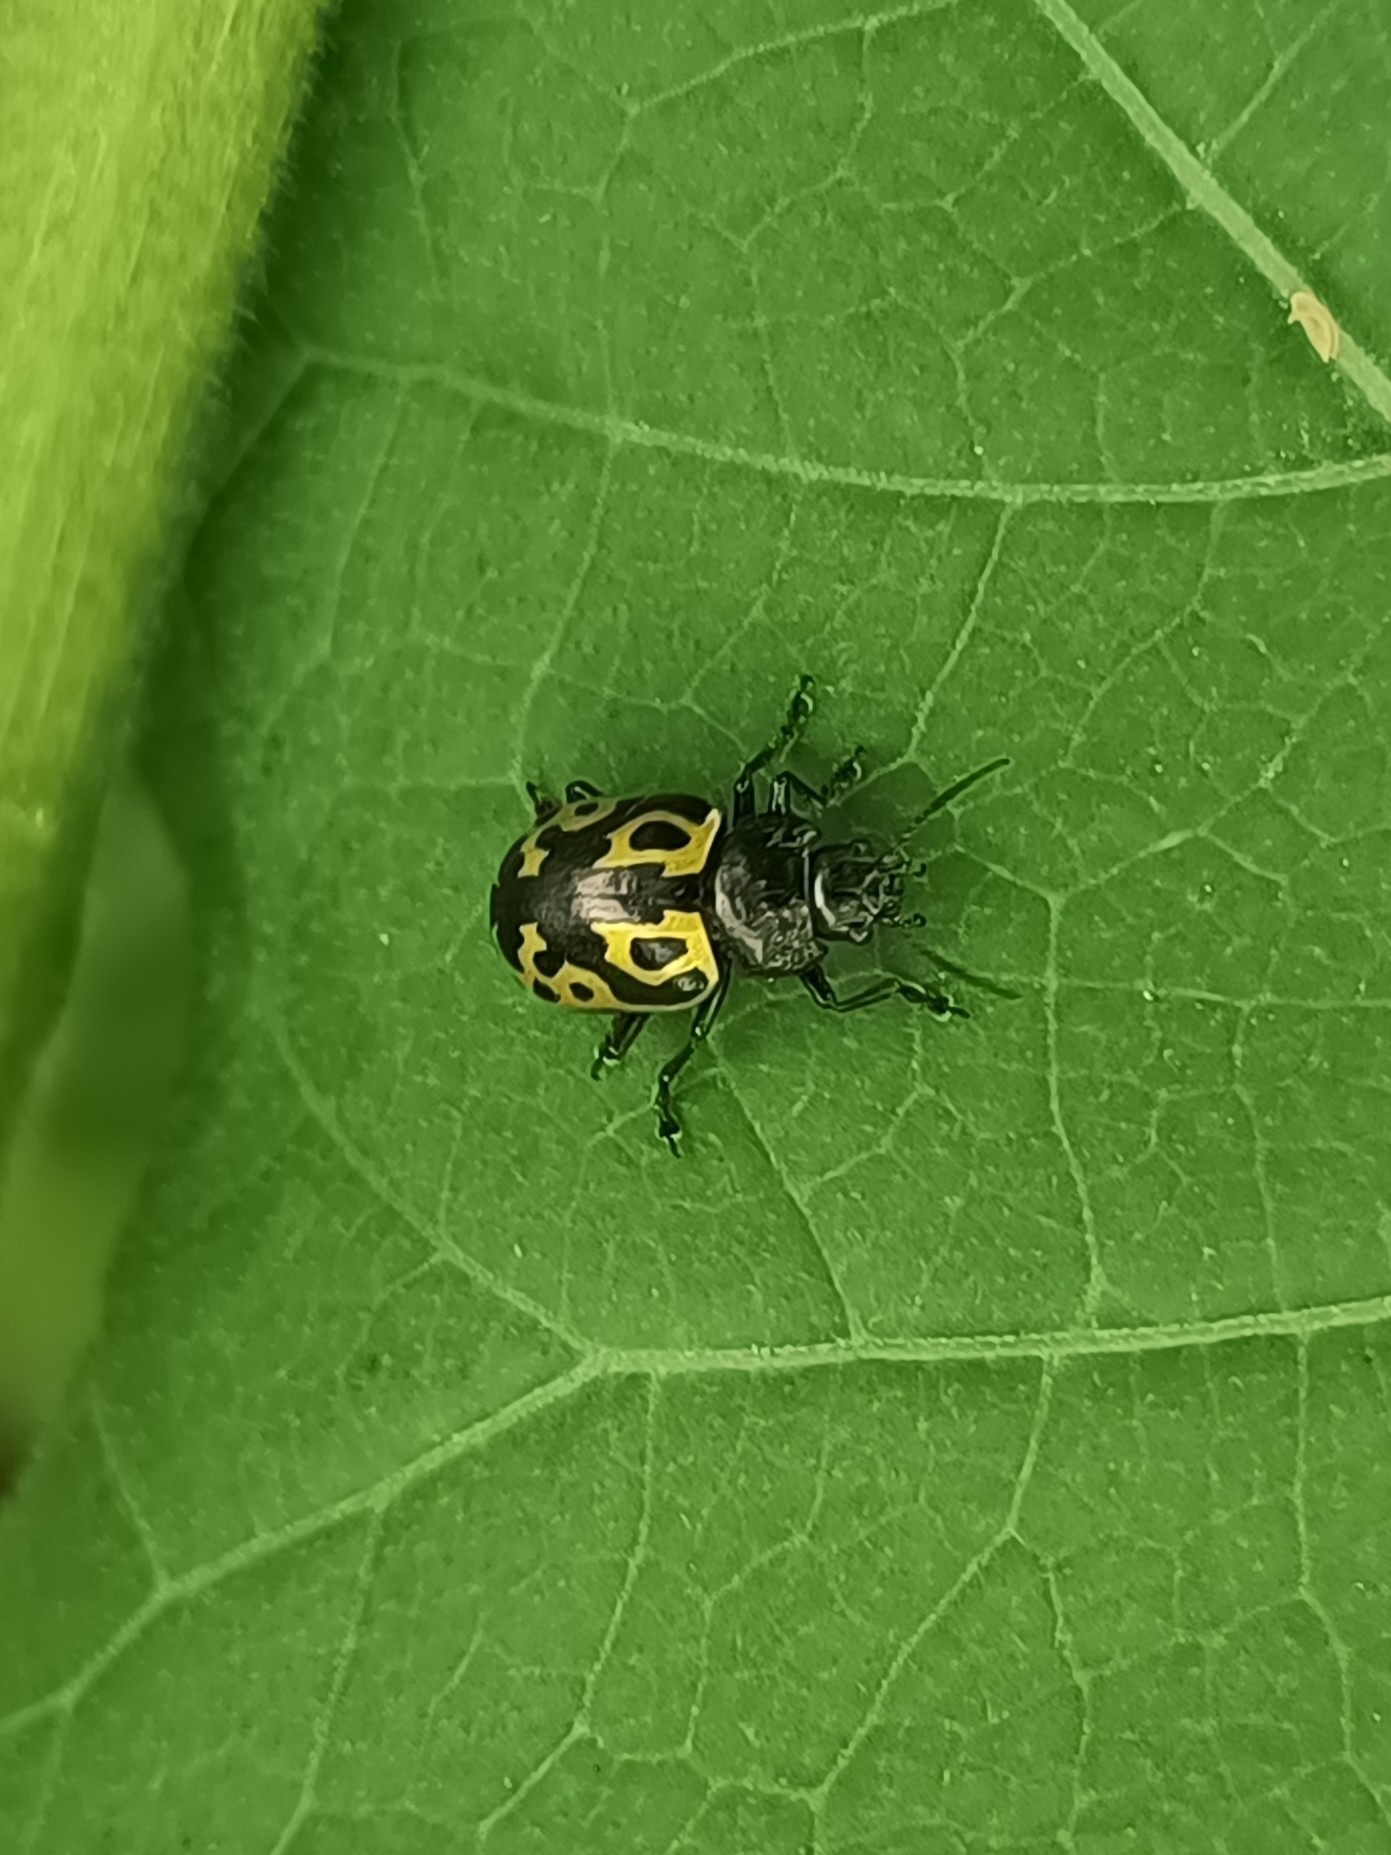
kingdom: Animalia
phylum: Arthropoda
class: Insecta
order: Coleoptera
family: Chrysomelidae
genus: Calligrapha
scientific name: Calligrapha
